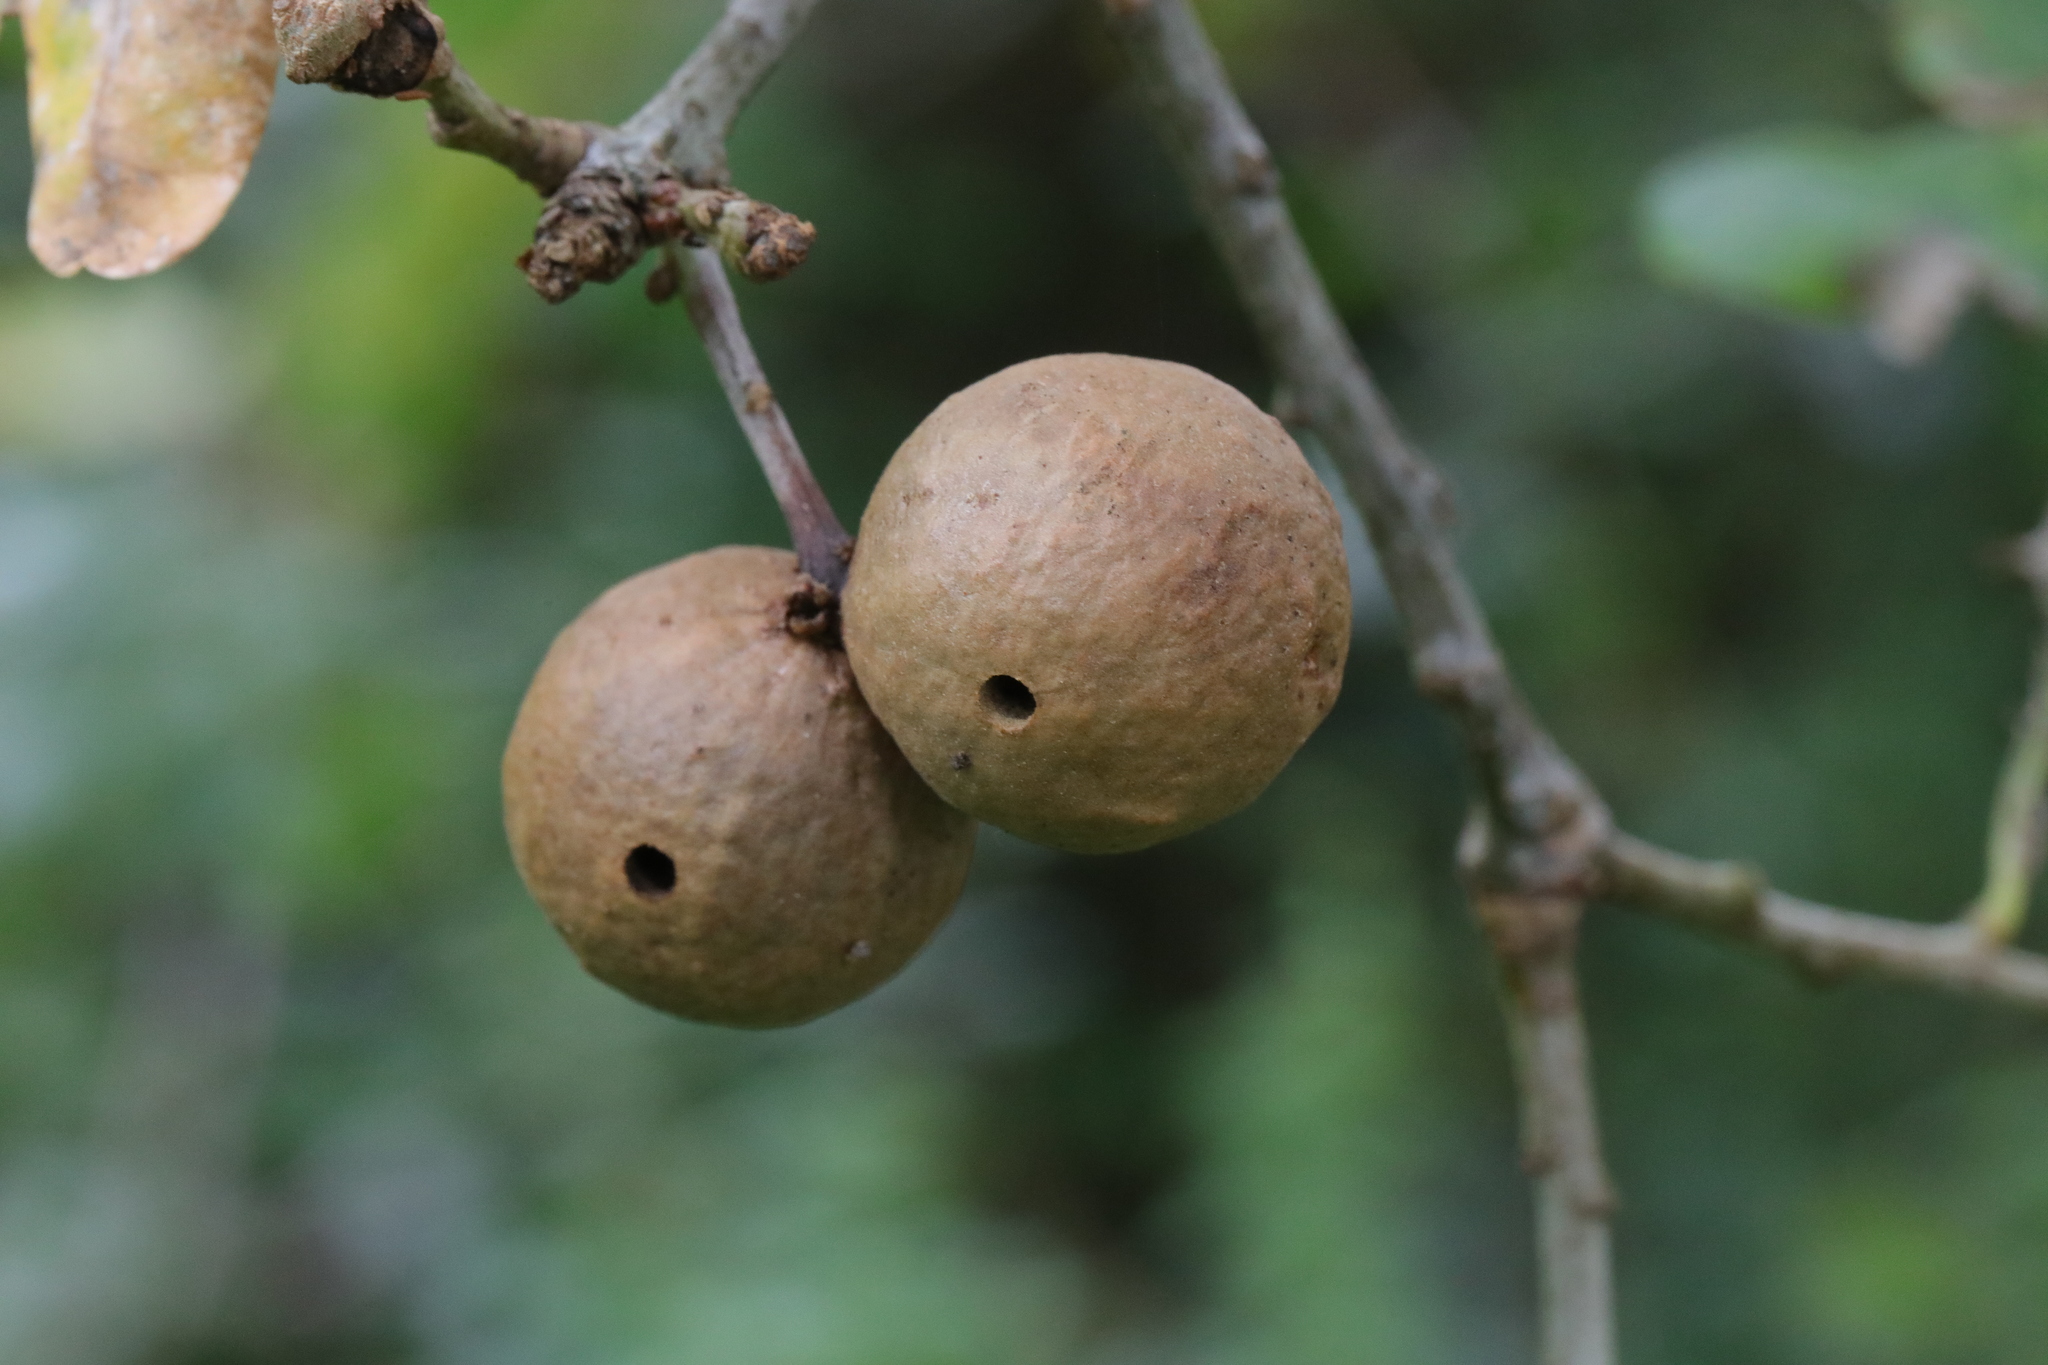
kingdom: Animalia
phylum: Arthropoda
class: Insecta
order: Hymenoptera
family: Cynipidae
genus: Andricus
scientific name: Andricus kollari
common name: Marble gall
